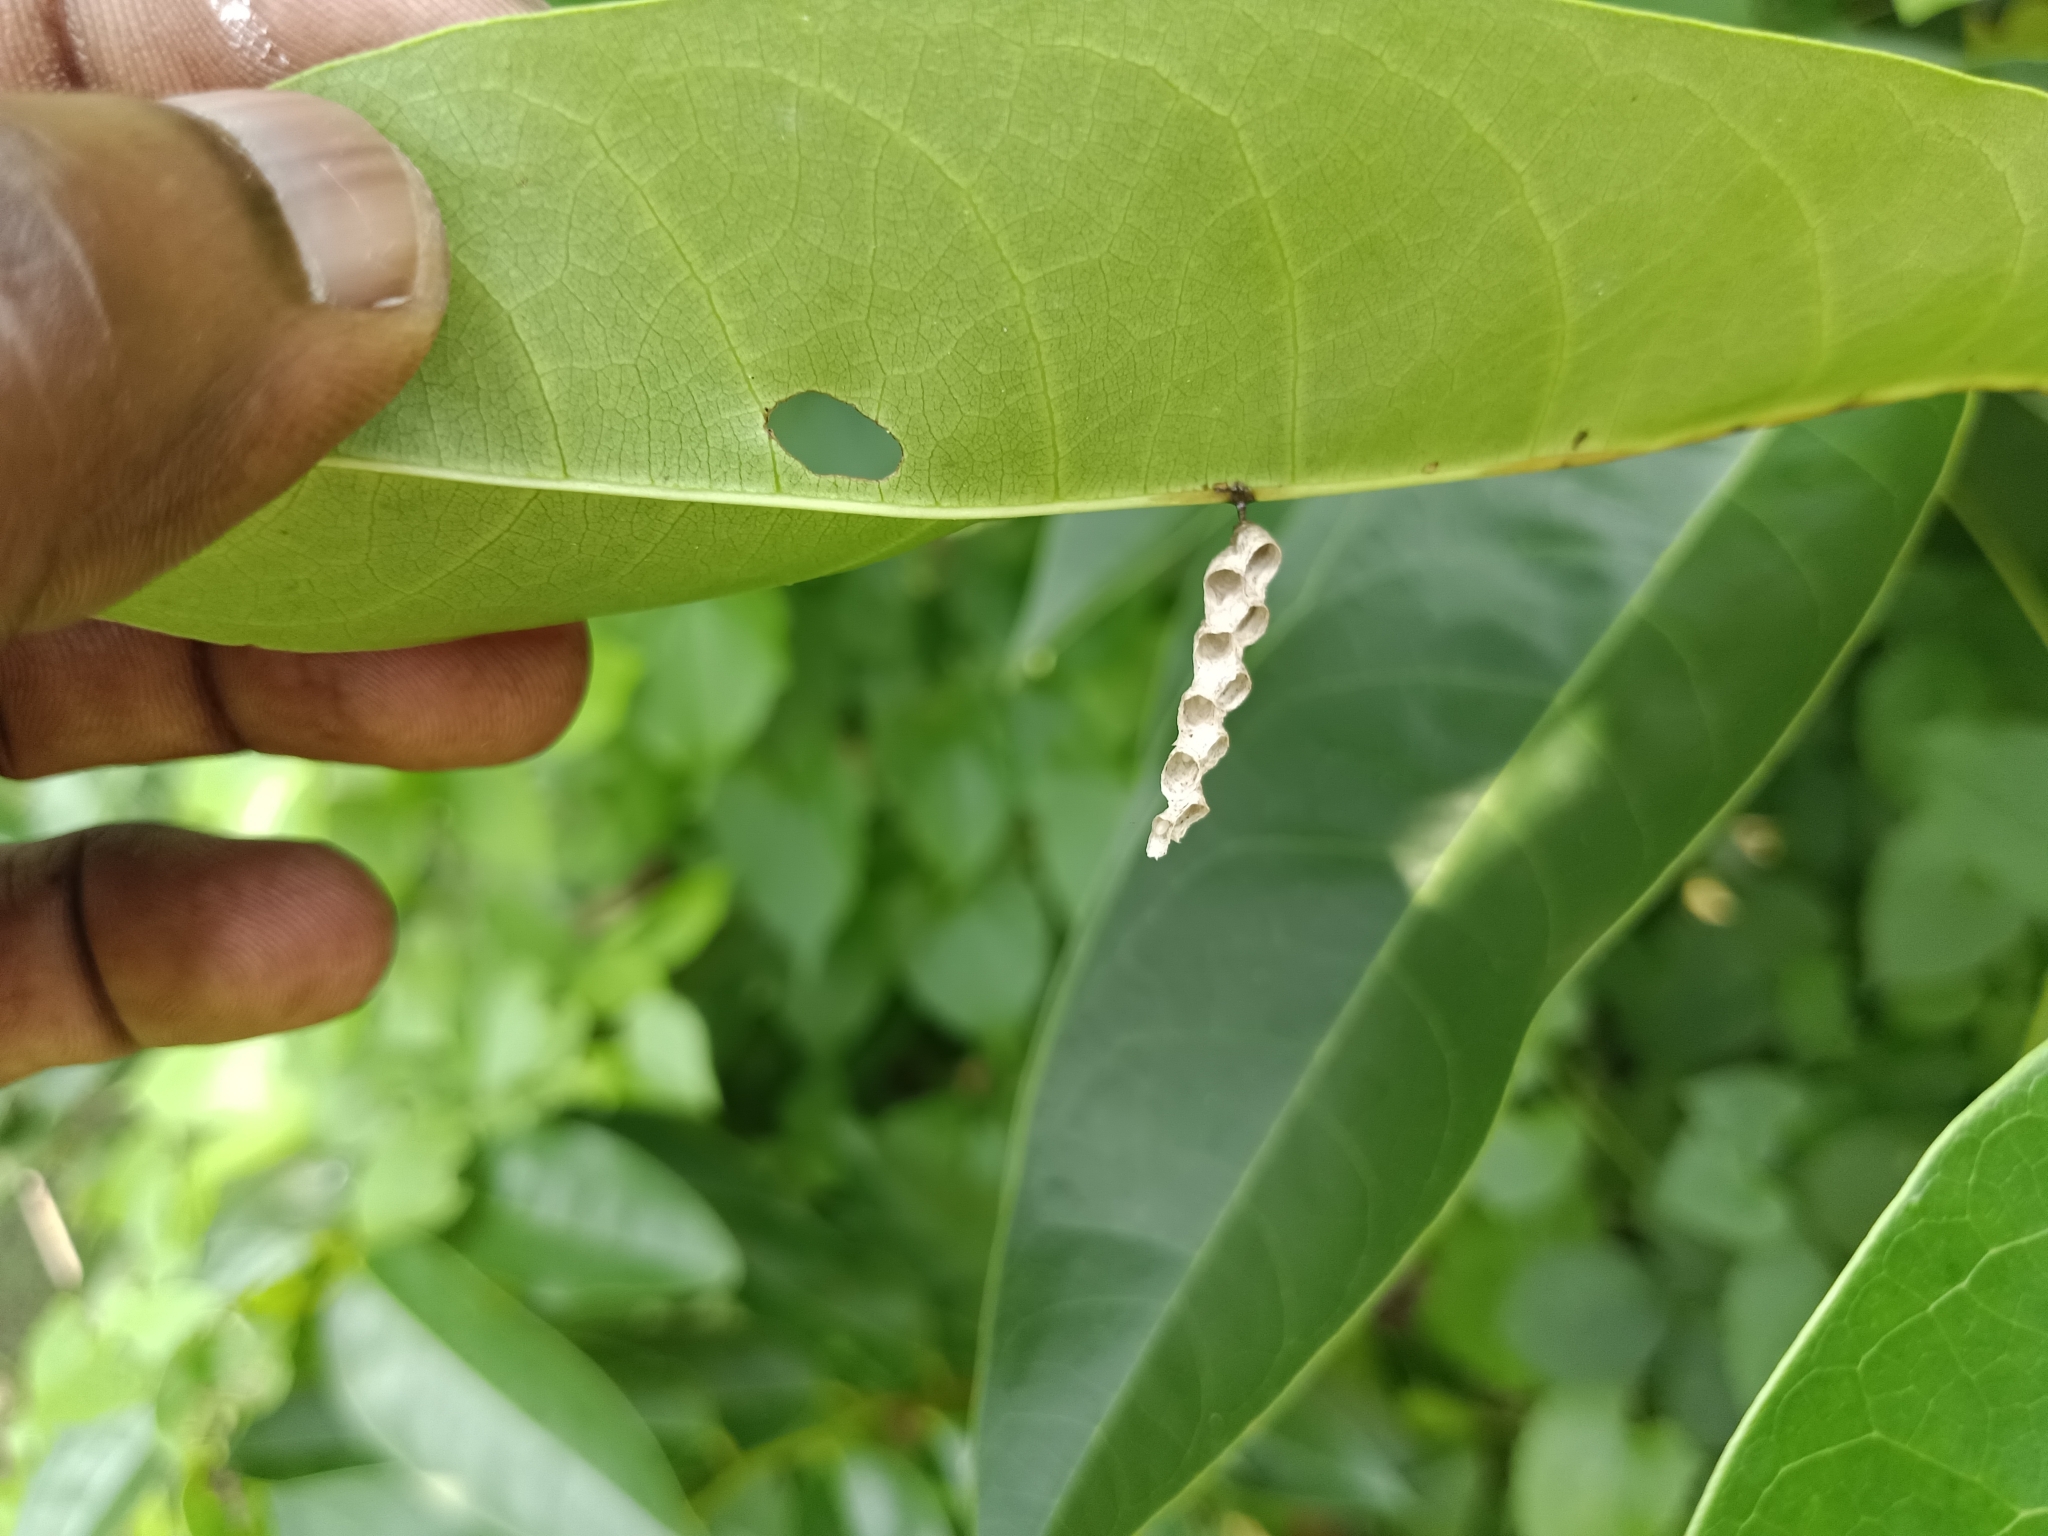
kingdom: Animalia
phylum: Arthropoda
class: Insecta
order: Hymenoptera
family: Vespidae
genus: Ropalidia
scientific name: Ropalidia
